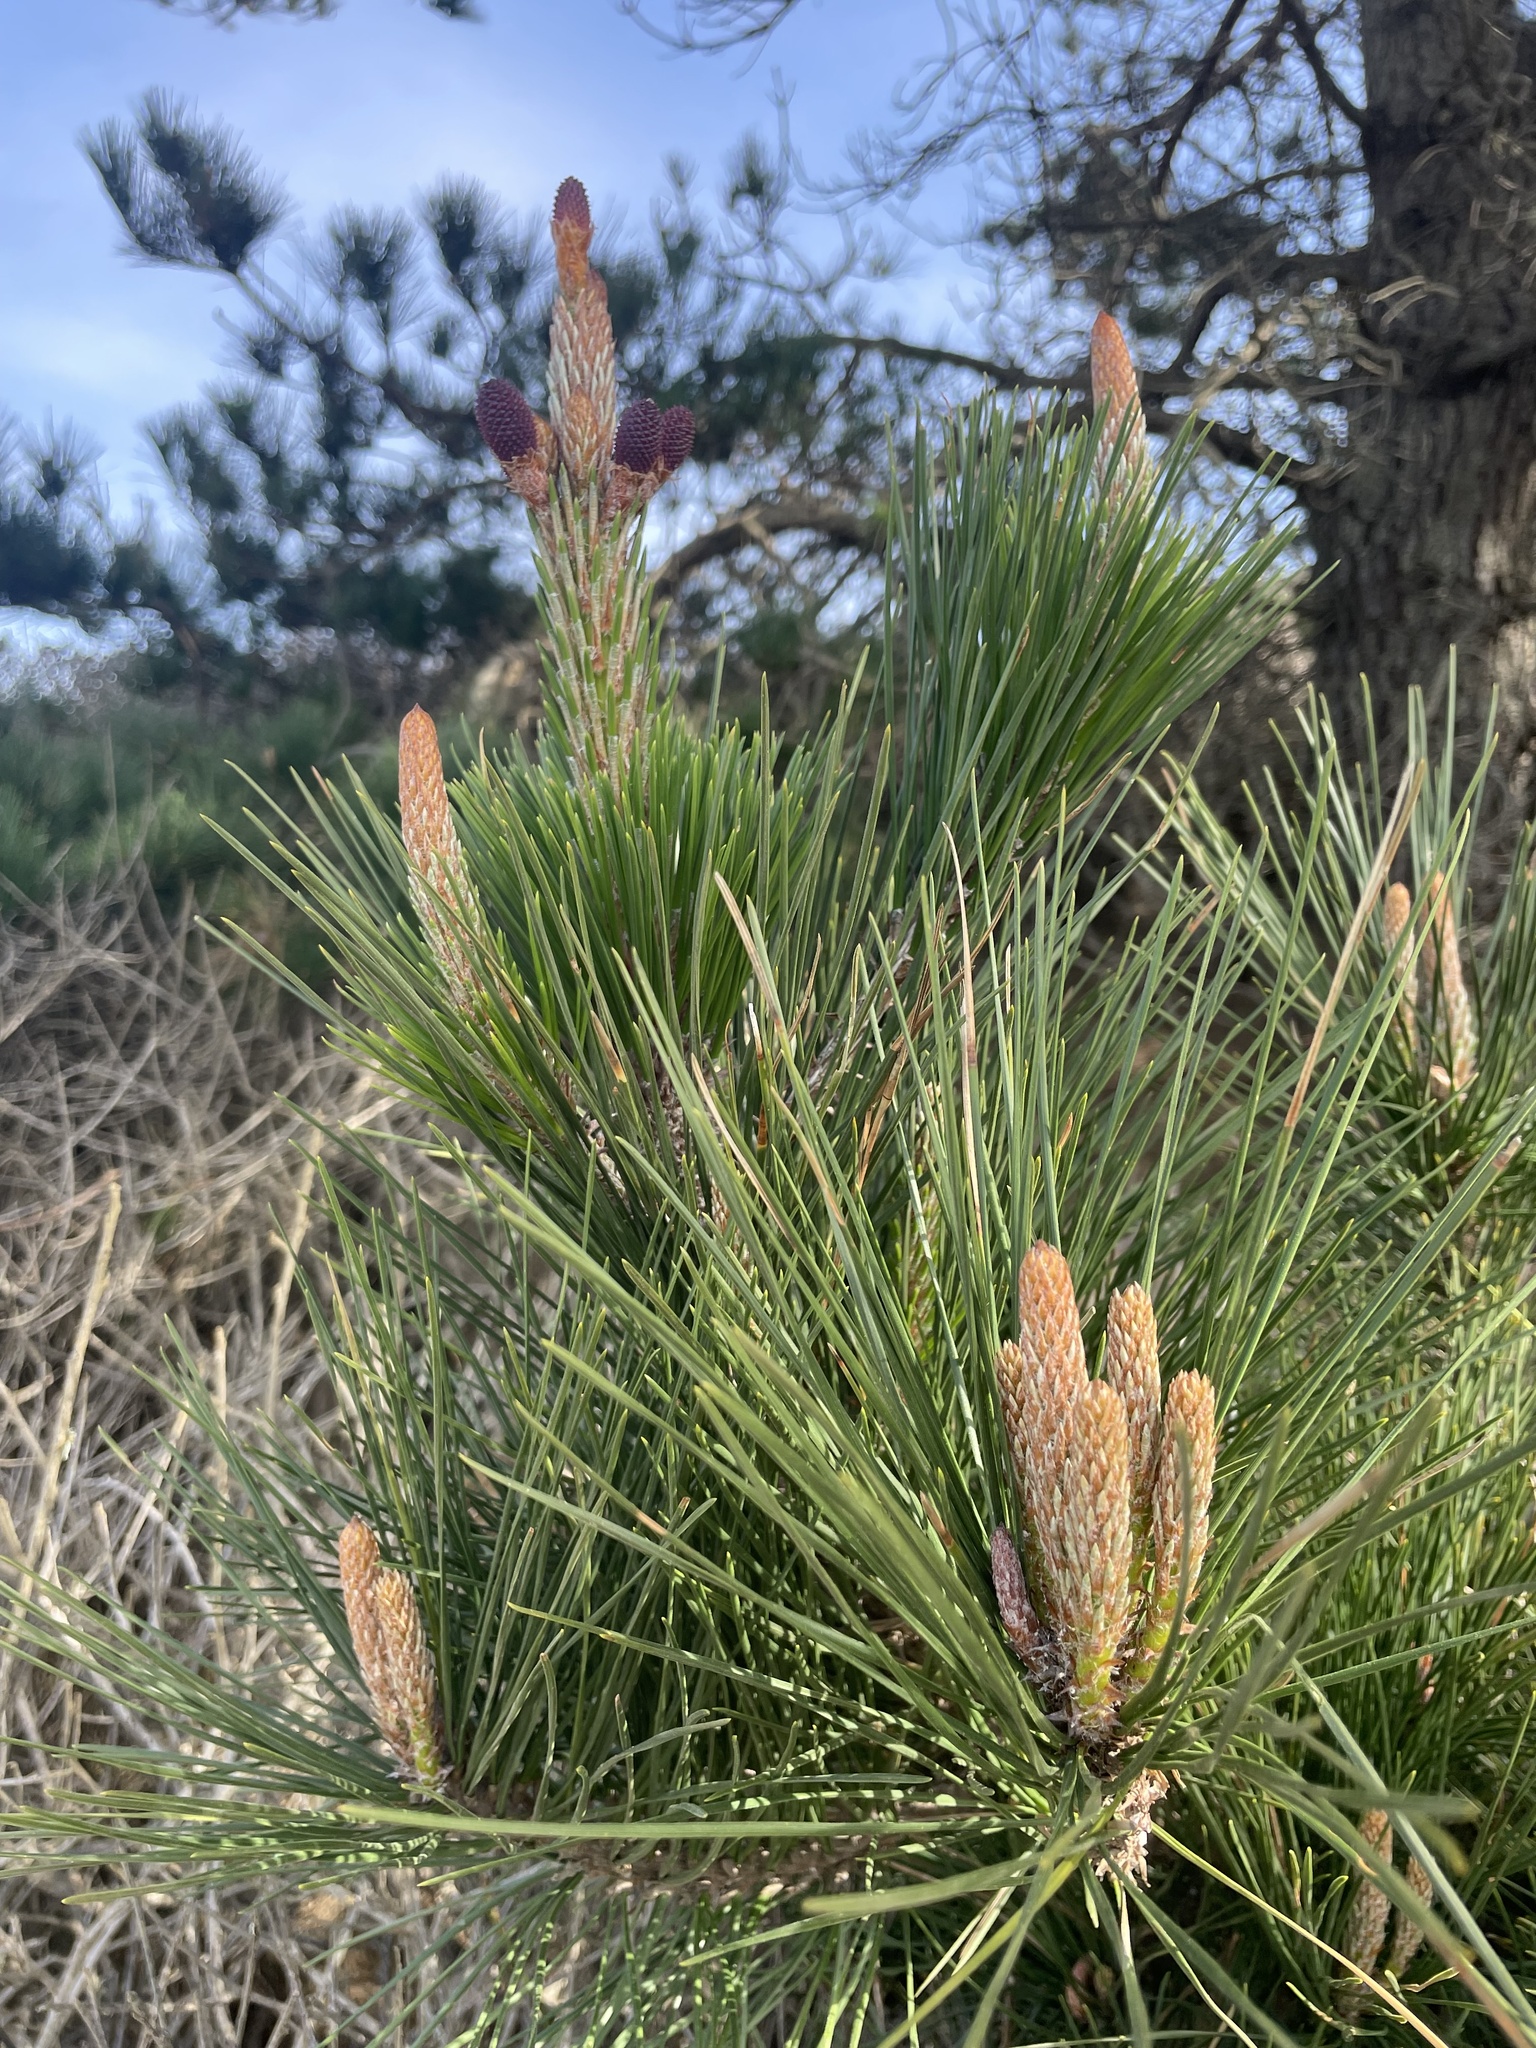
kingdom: Plantae
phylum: Tracheophyta
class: Pinopsida
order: Pinales
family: Pinaceae
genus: Pinus
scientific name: Pinus radiata
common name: Monterey pine
